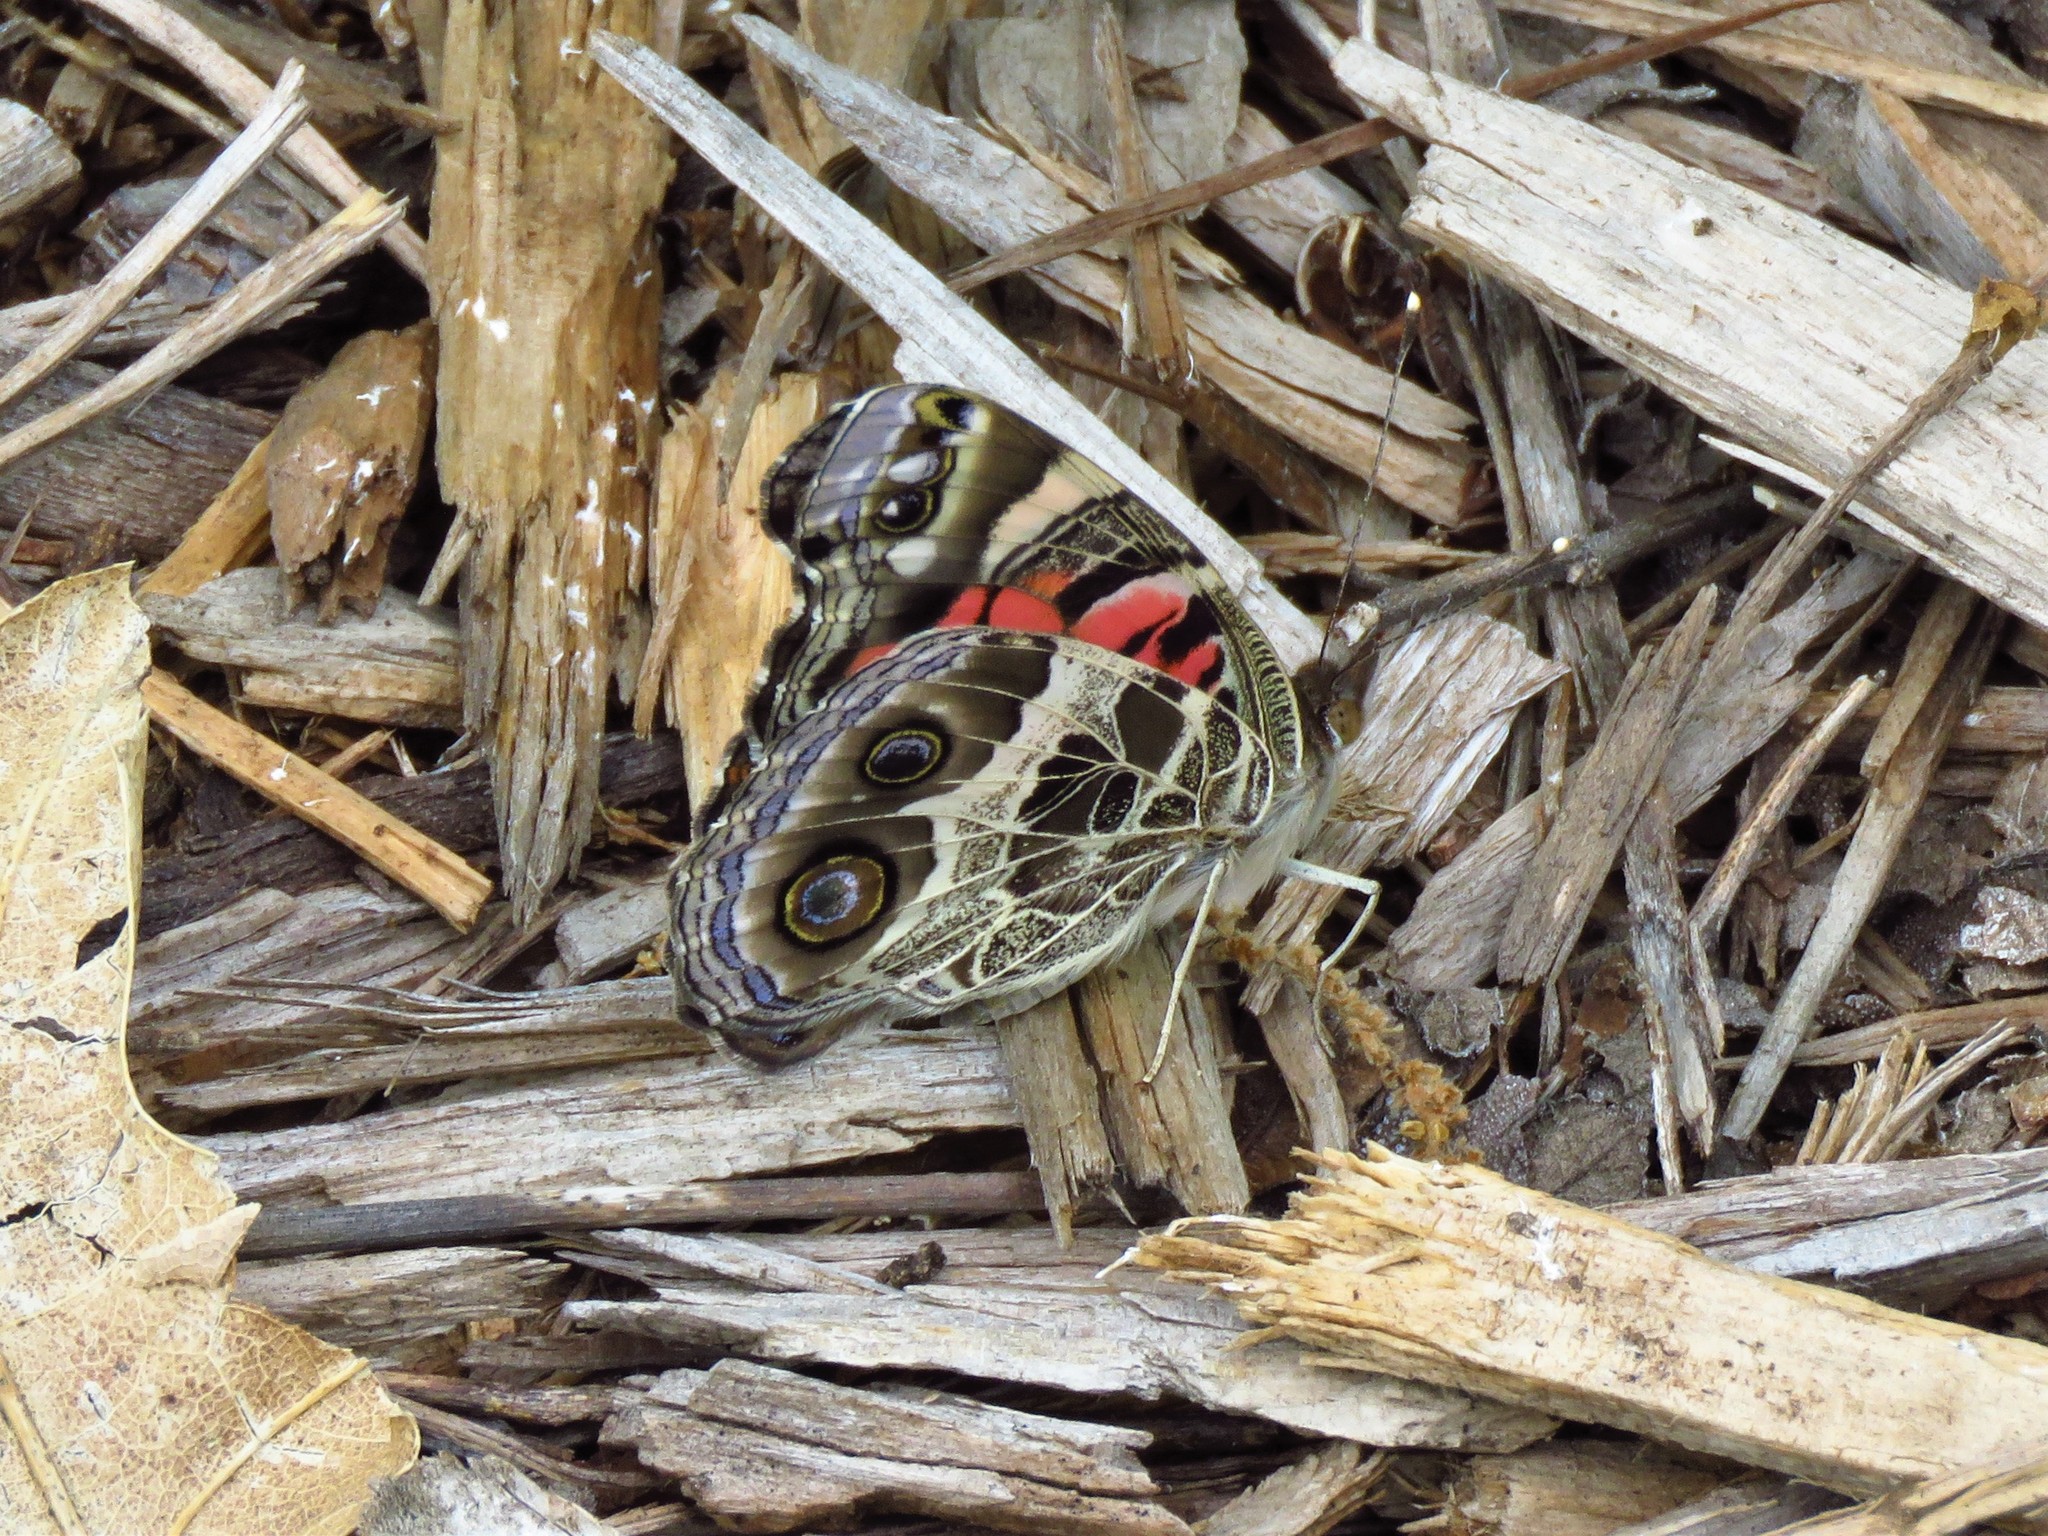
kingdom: Animalia
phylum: Arthropoda
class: Insecta
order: Lepidoptera
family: Nymphalidae
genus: Vanessa
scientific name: Vanessa virginiensis
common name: American lady
